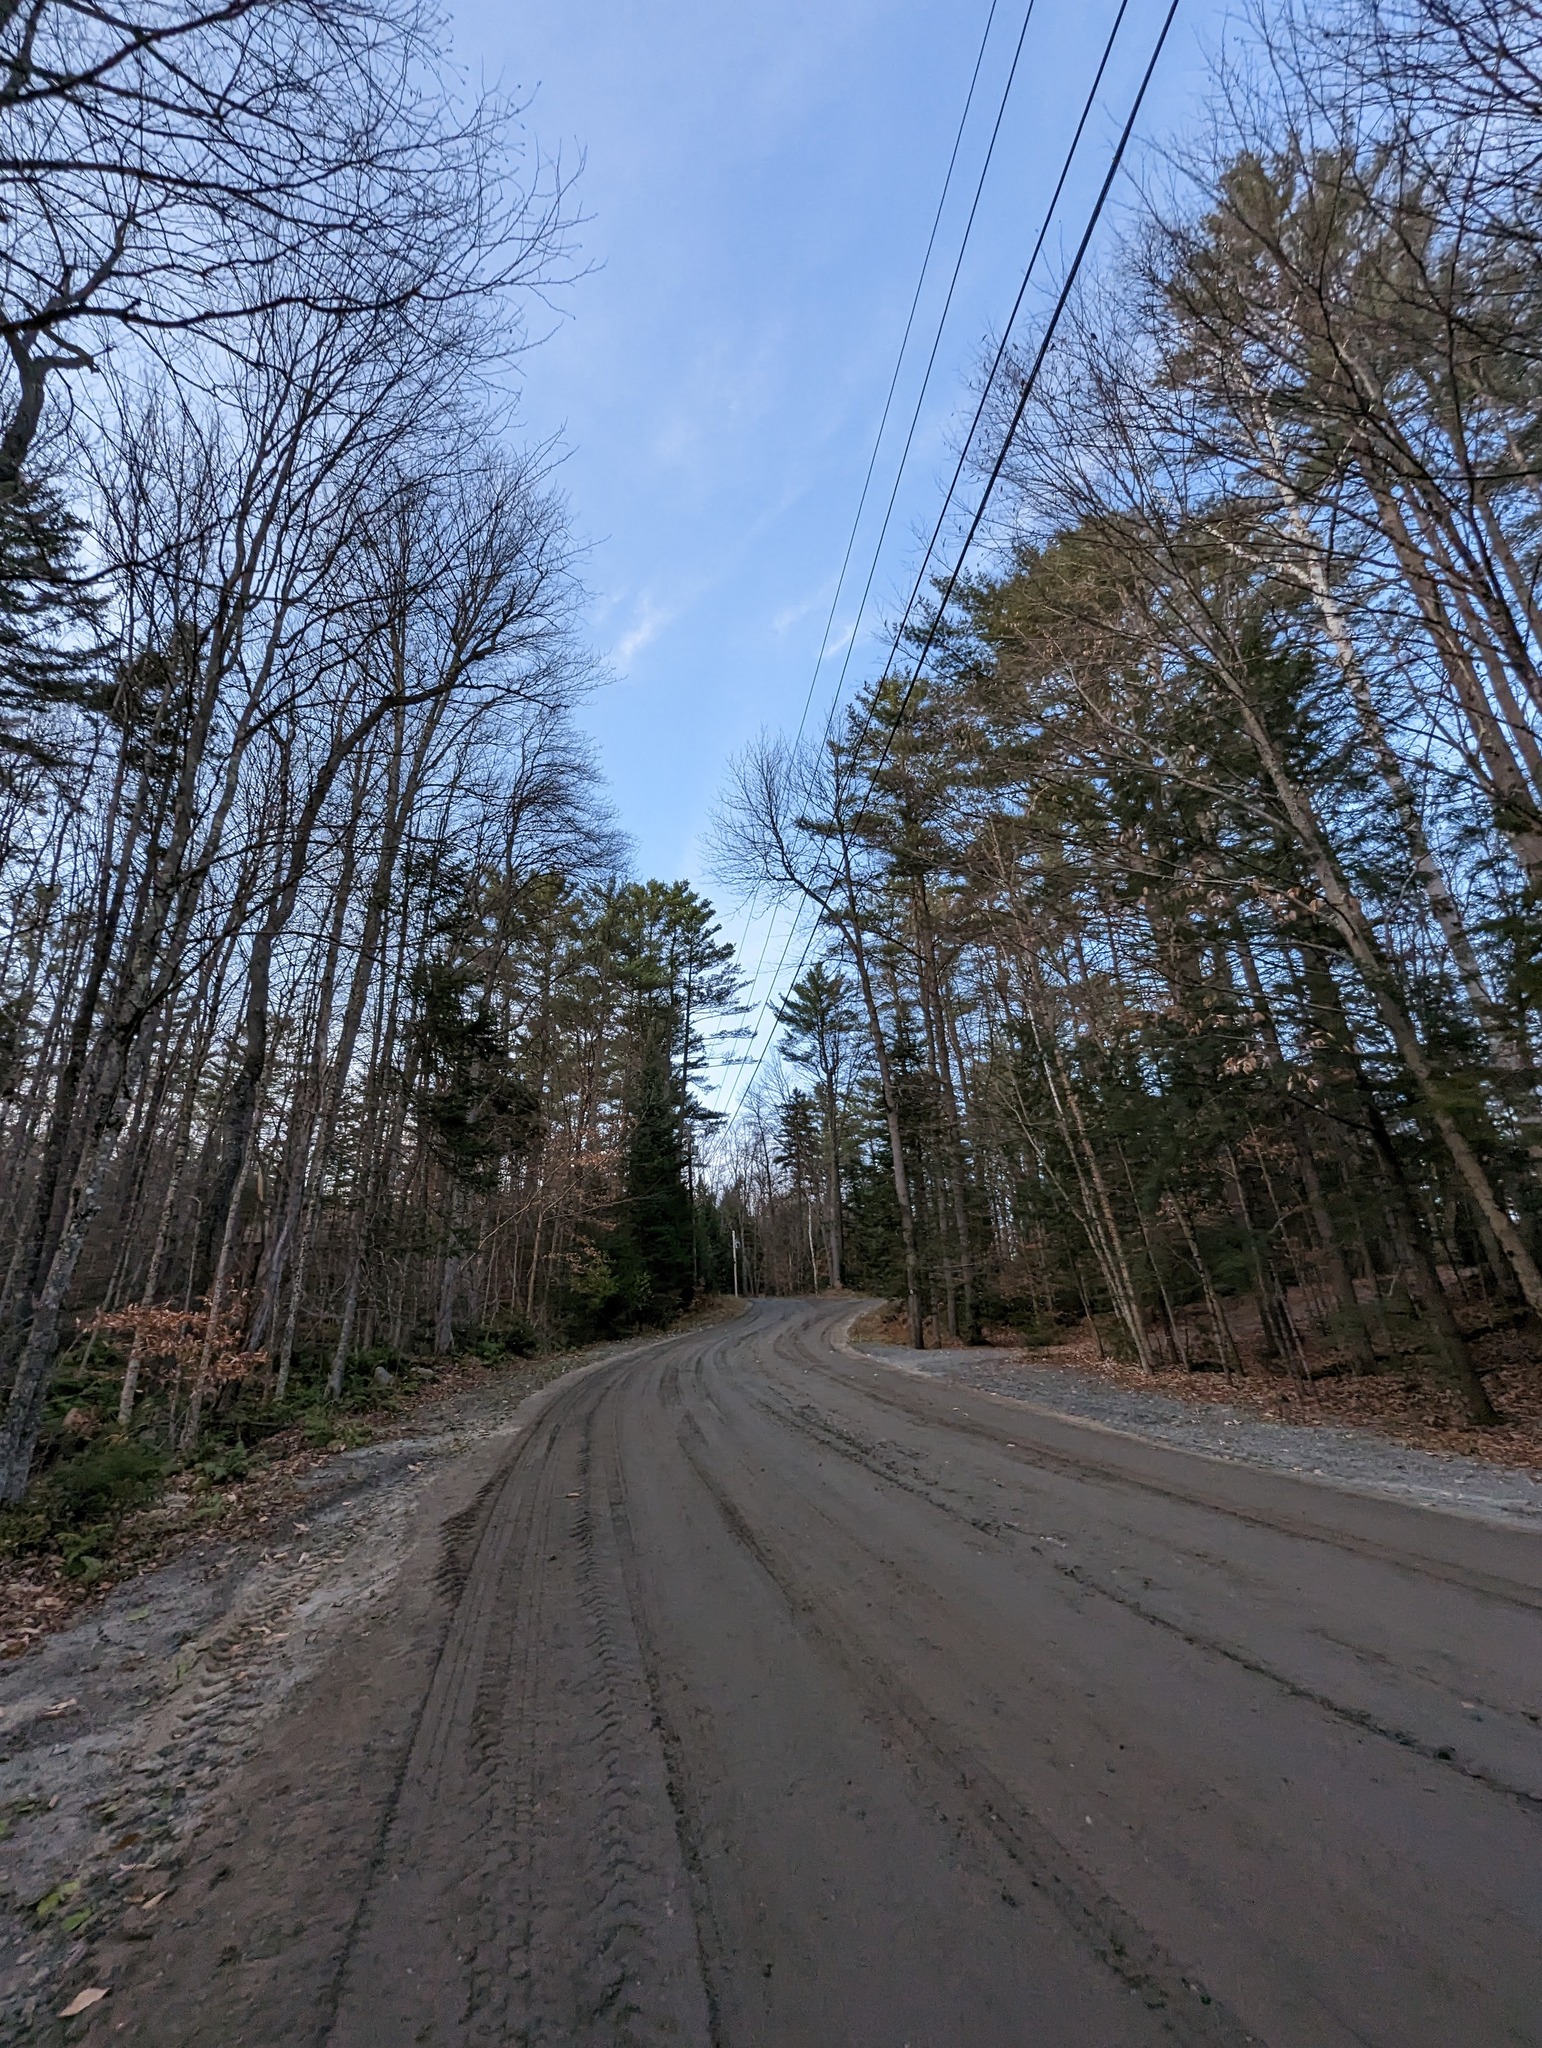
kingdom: Plantae
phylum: Tracheophyta
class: Pinopsida
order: Pinales
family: Pinaceae
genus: Pinus
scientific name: Pinus strobus
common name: Weymouth pine
